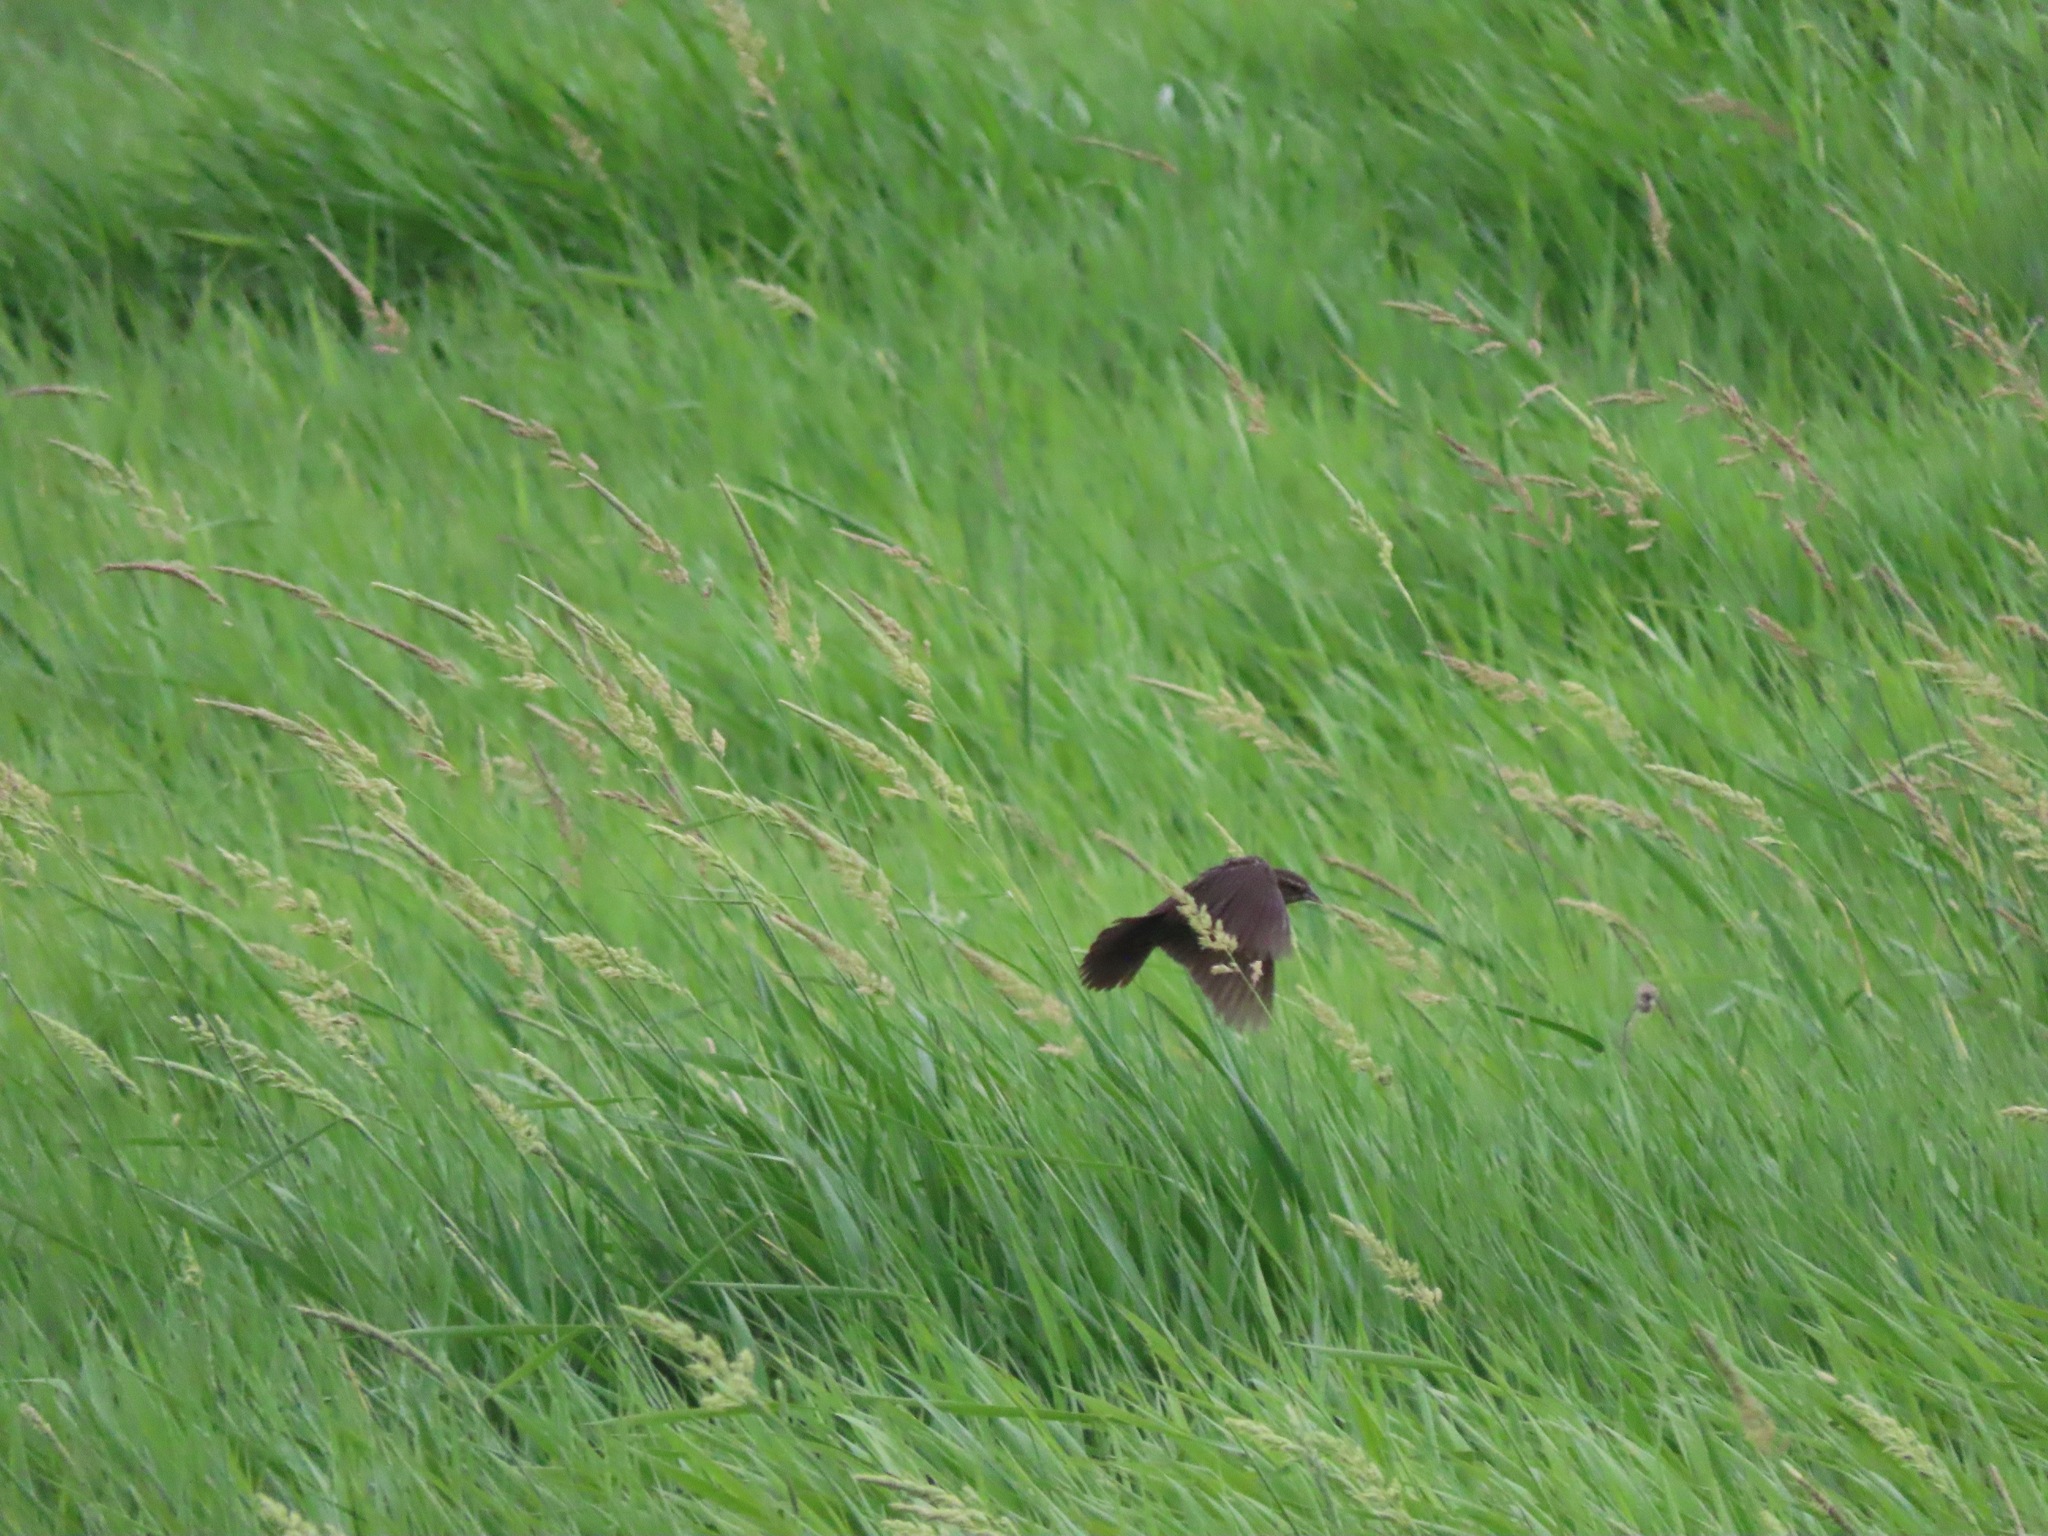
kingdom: Animalia
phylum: Chordata
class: Aves
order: Passeriformes
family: Icteridae
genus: Agelaius
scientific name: Agelaius phoeniceus
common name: Red-winged blackbird
